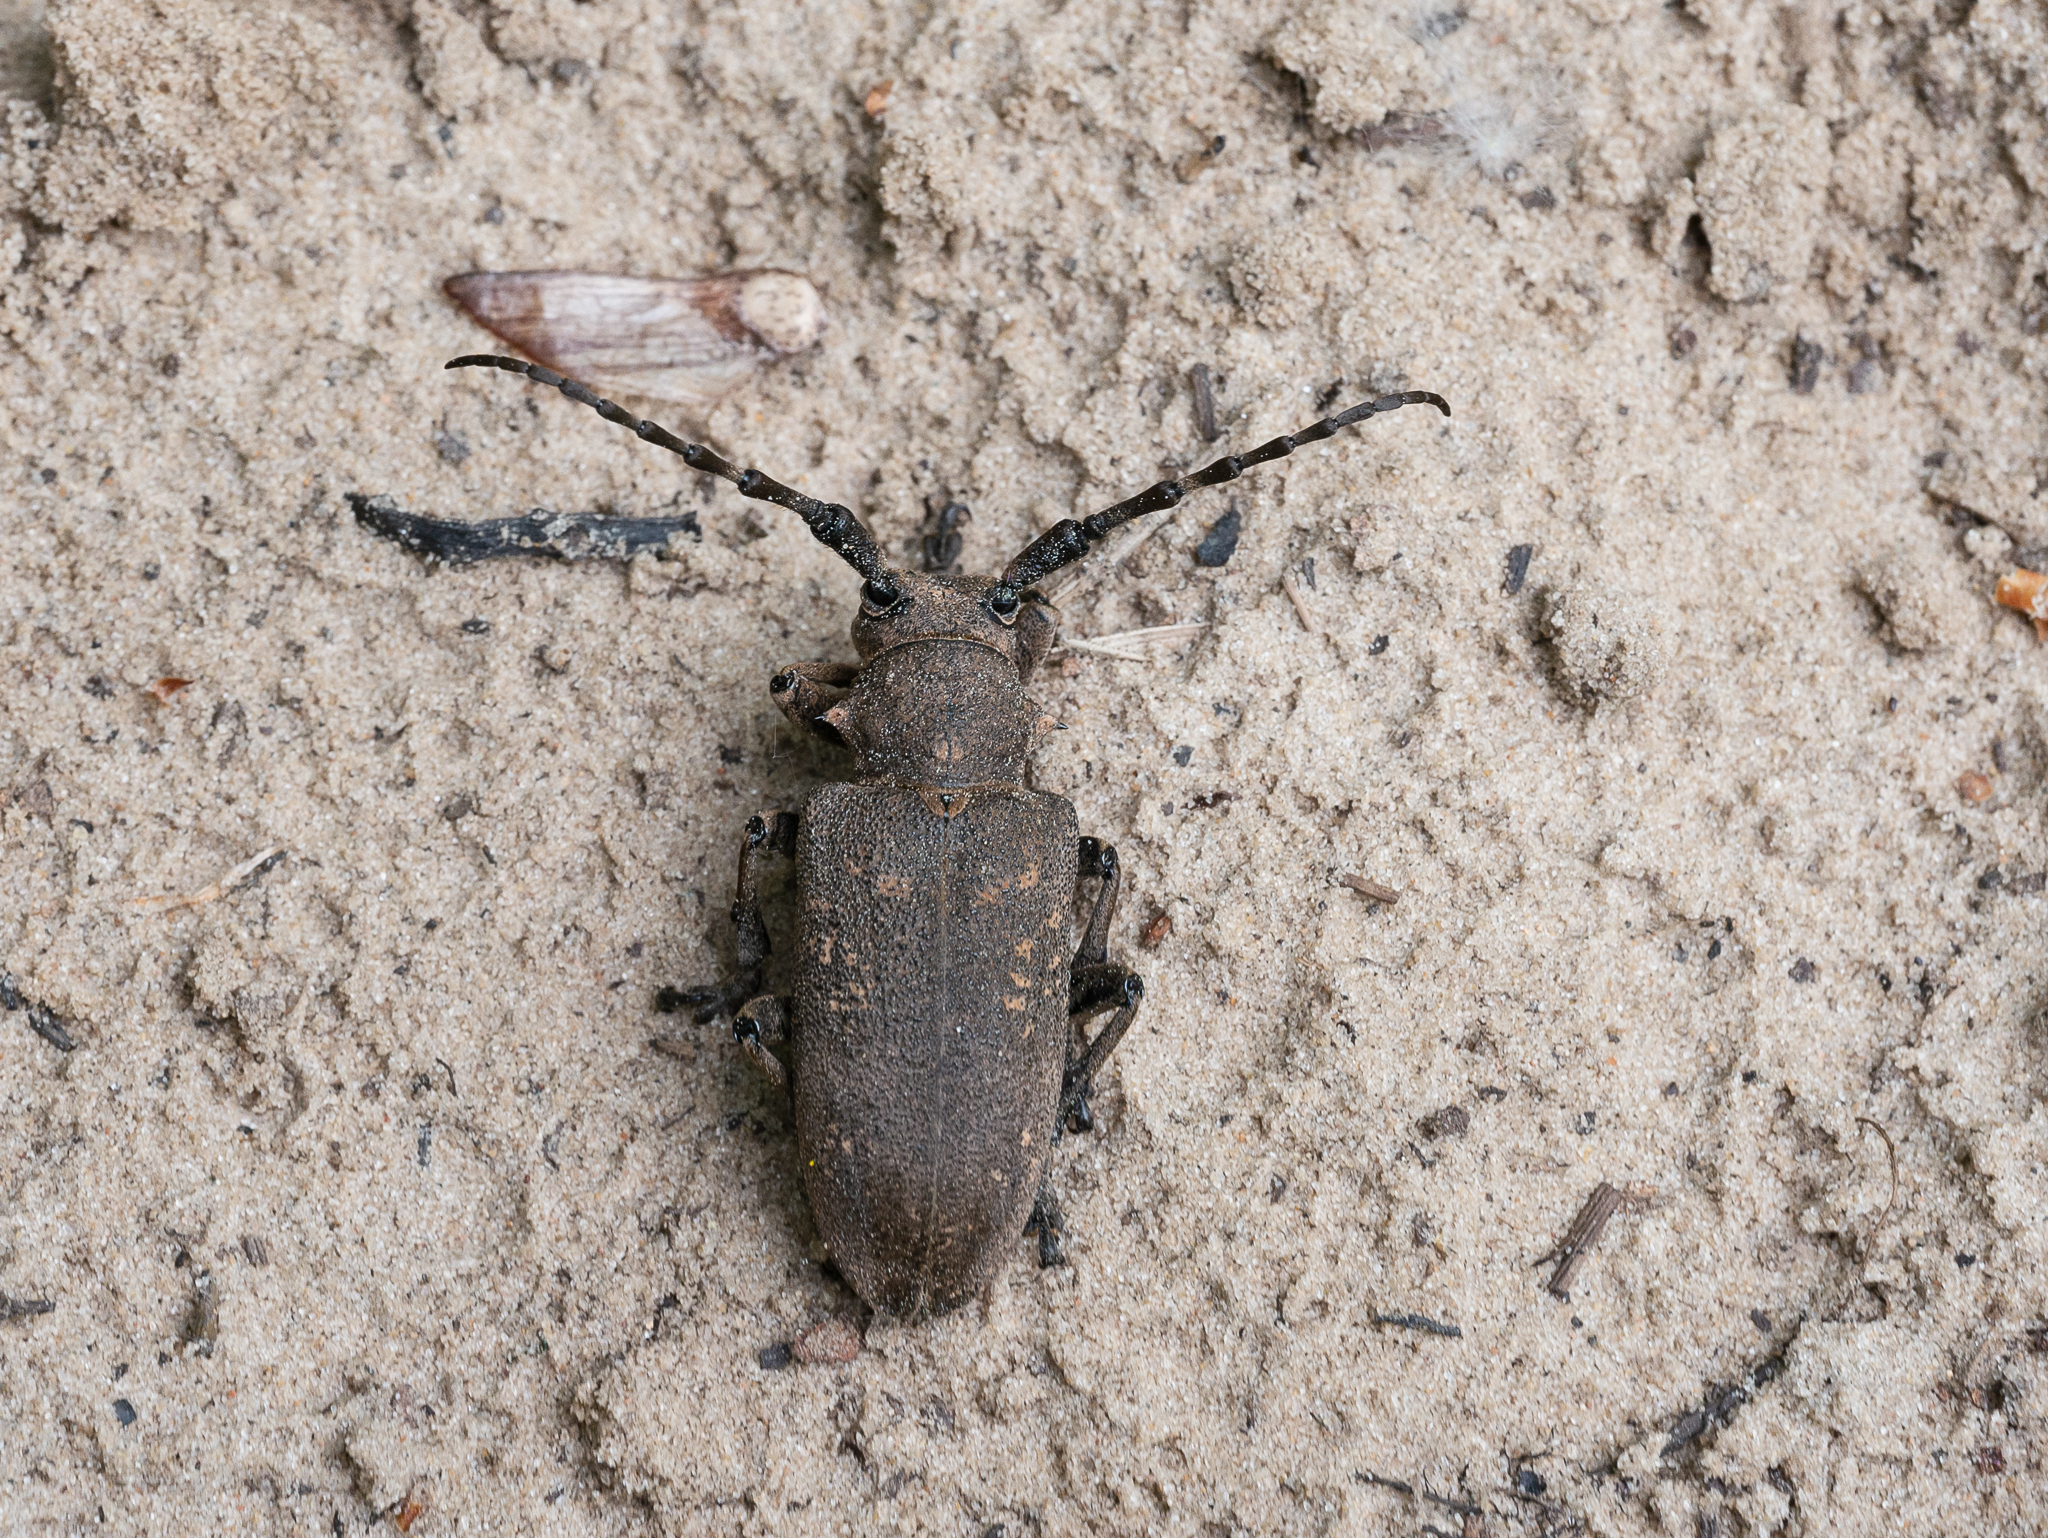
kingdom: Animalia
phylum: Arthropoda
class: Insecta
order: Coleoptera
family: Cerambycidae
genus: Lamia
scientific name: Lamia textor
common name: Weaver beetle
